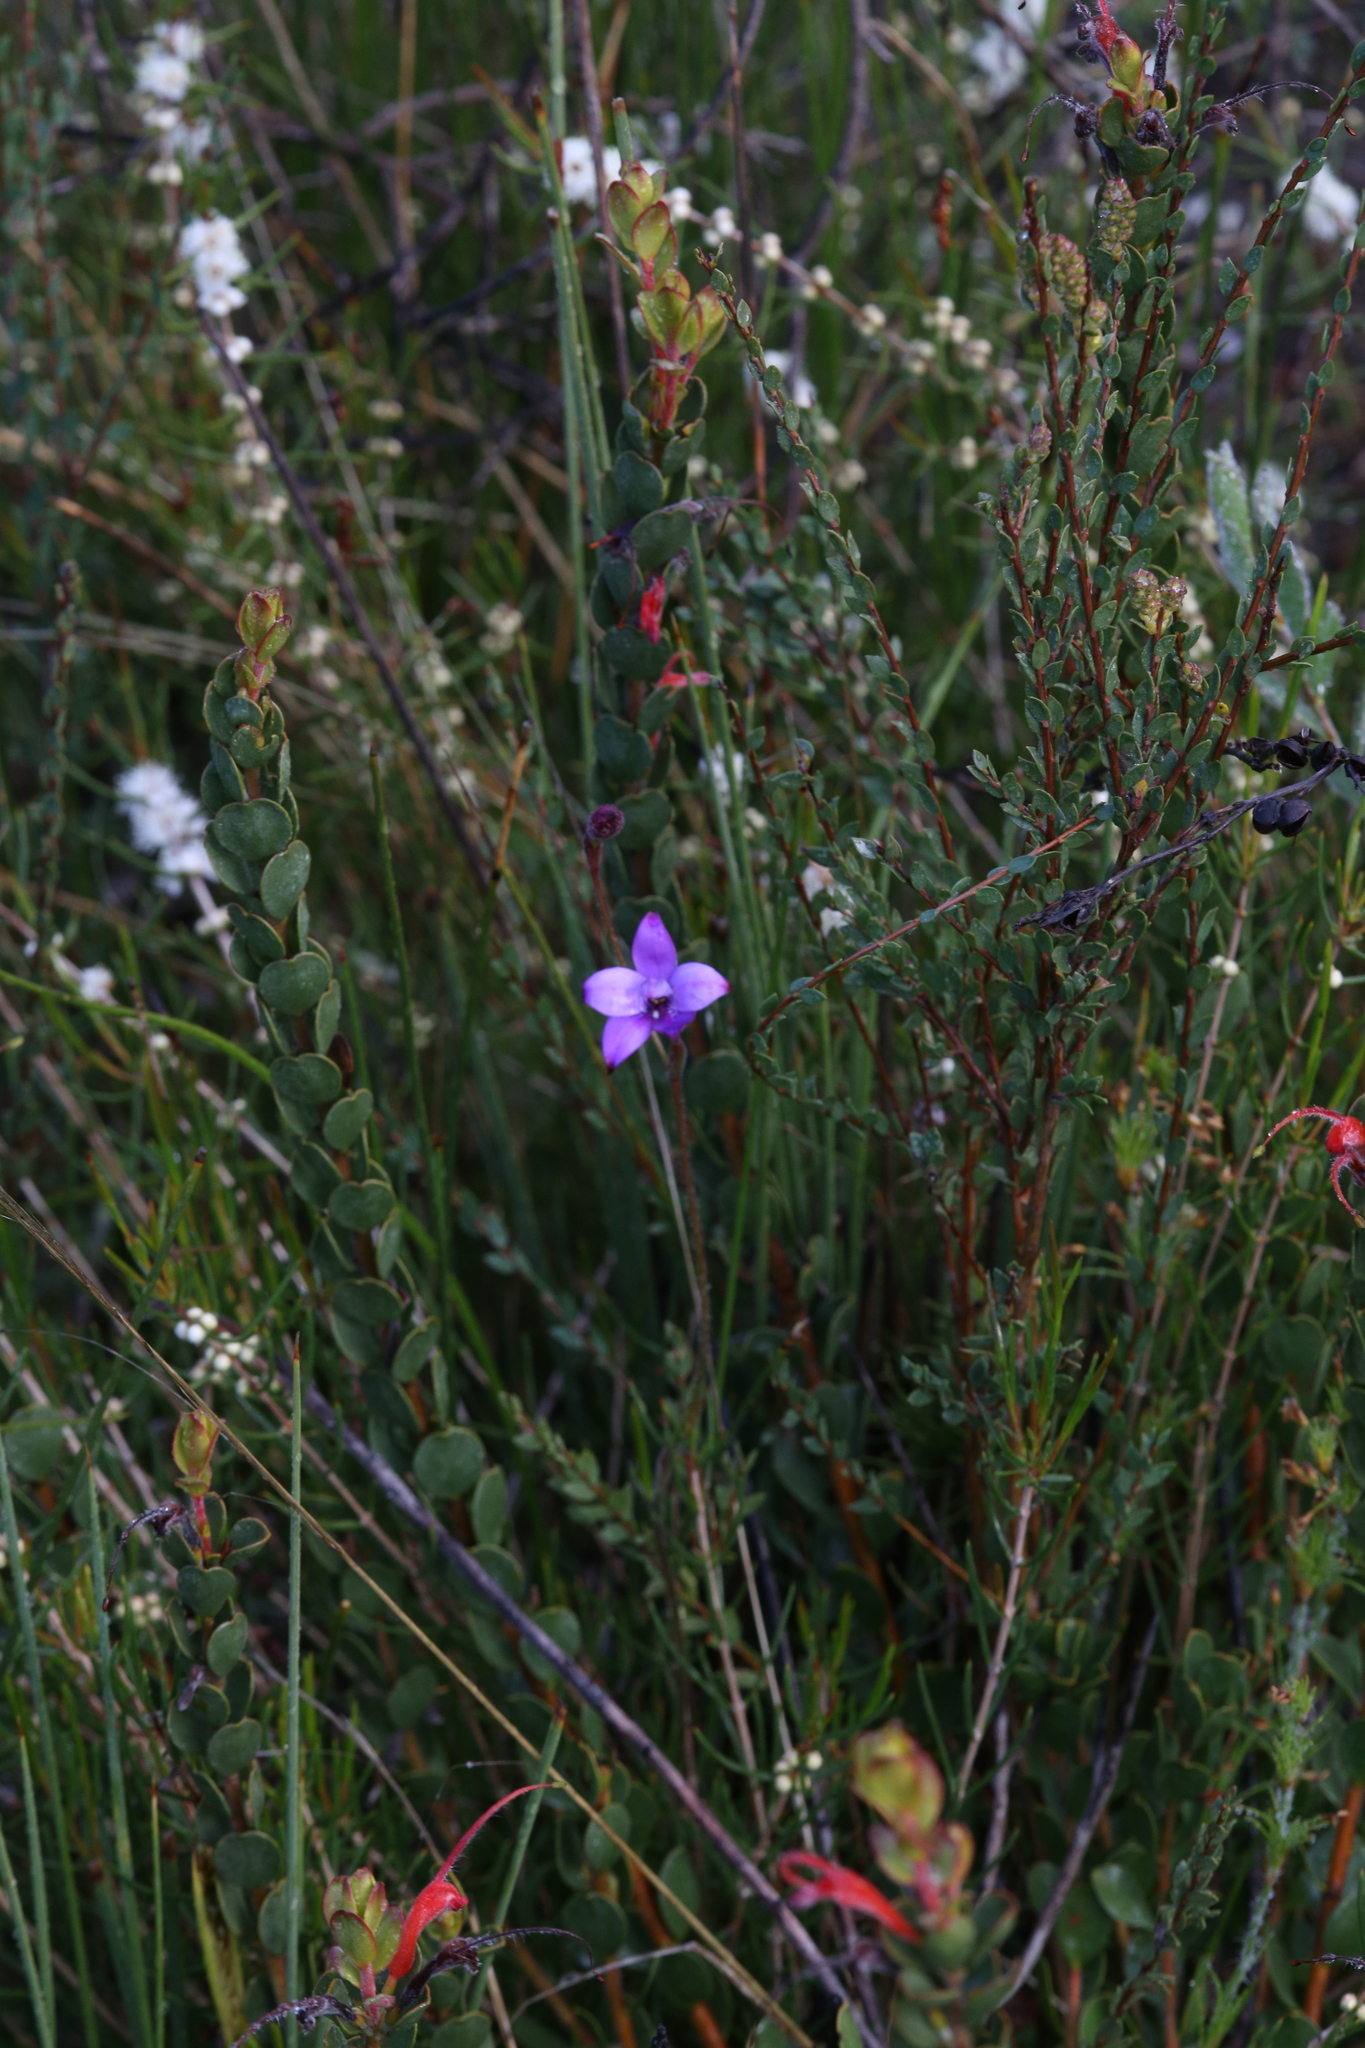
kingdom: Plantae
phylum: Tracheophyta
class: Liliopsida
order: Asparagales
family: Orchidaceae
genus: Caladenia
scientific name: Caladenia brunonis
